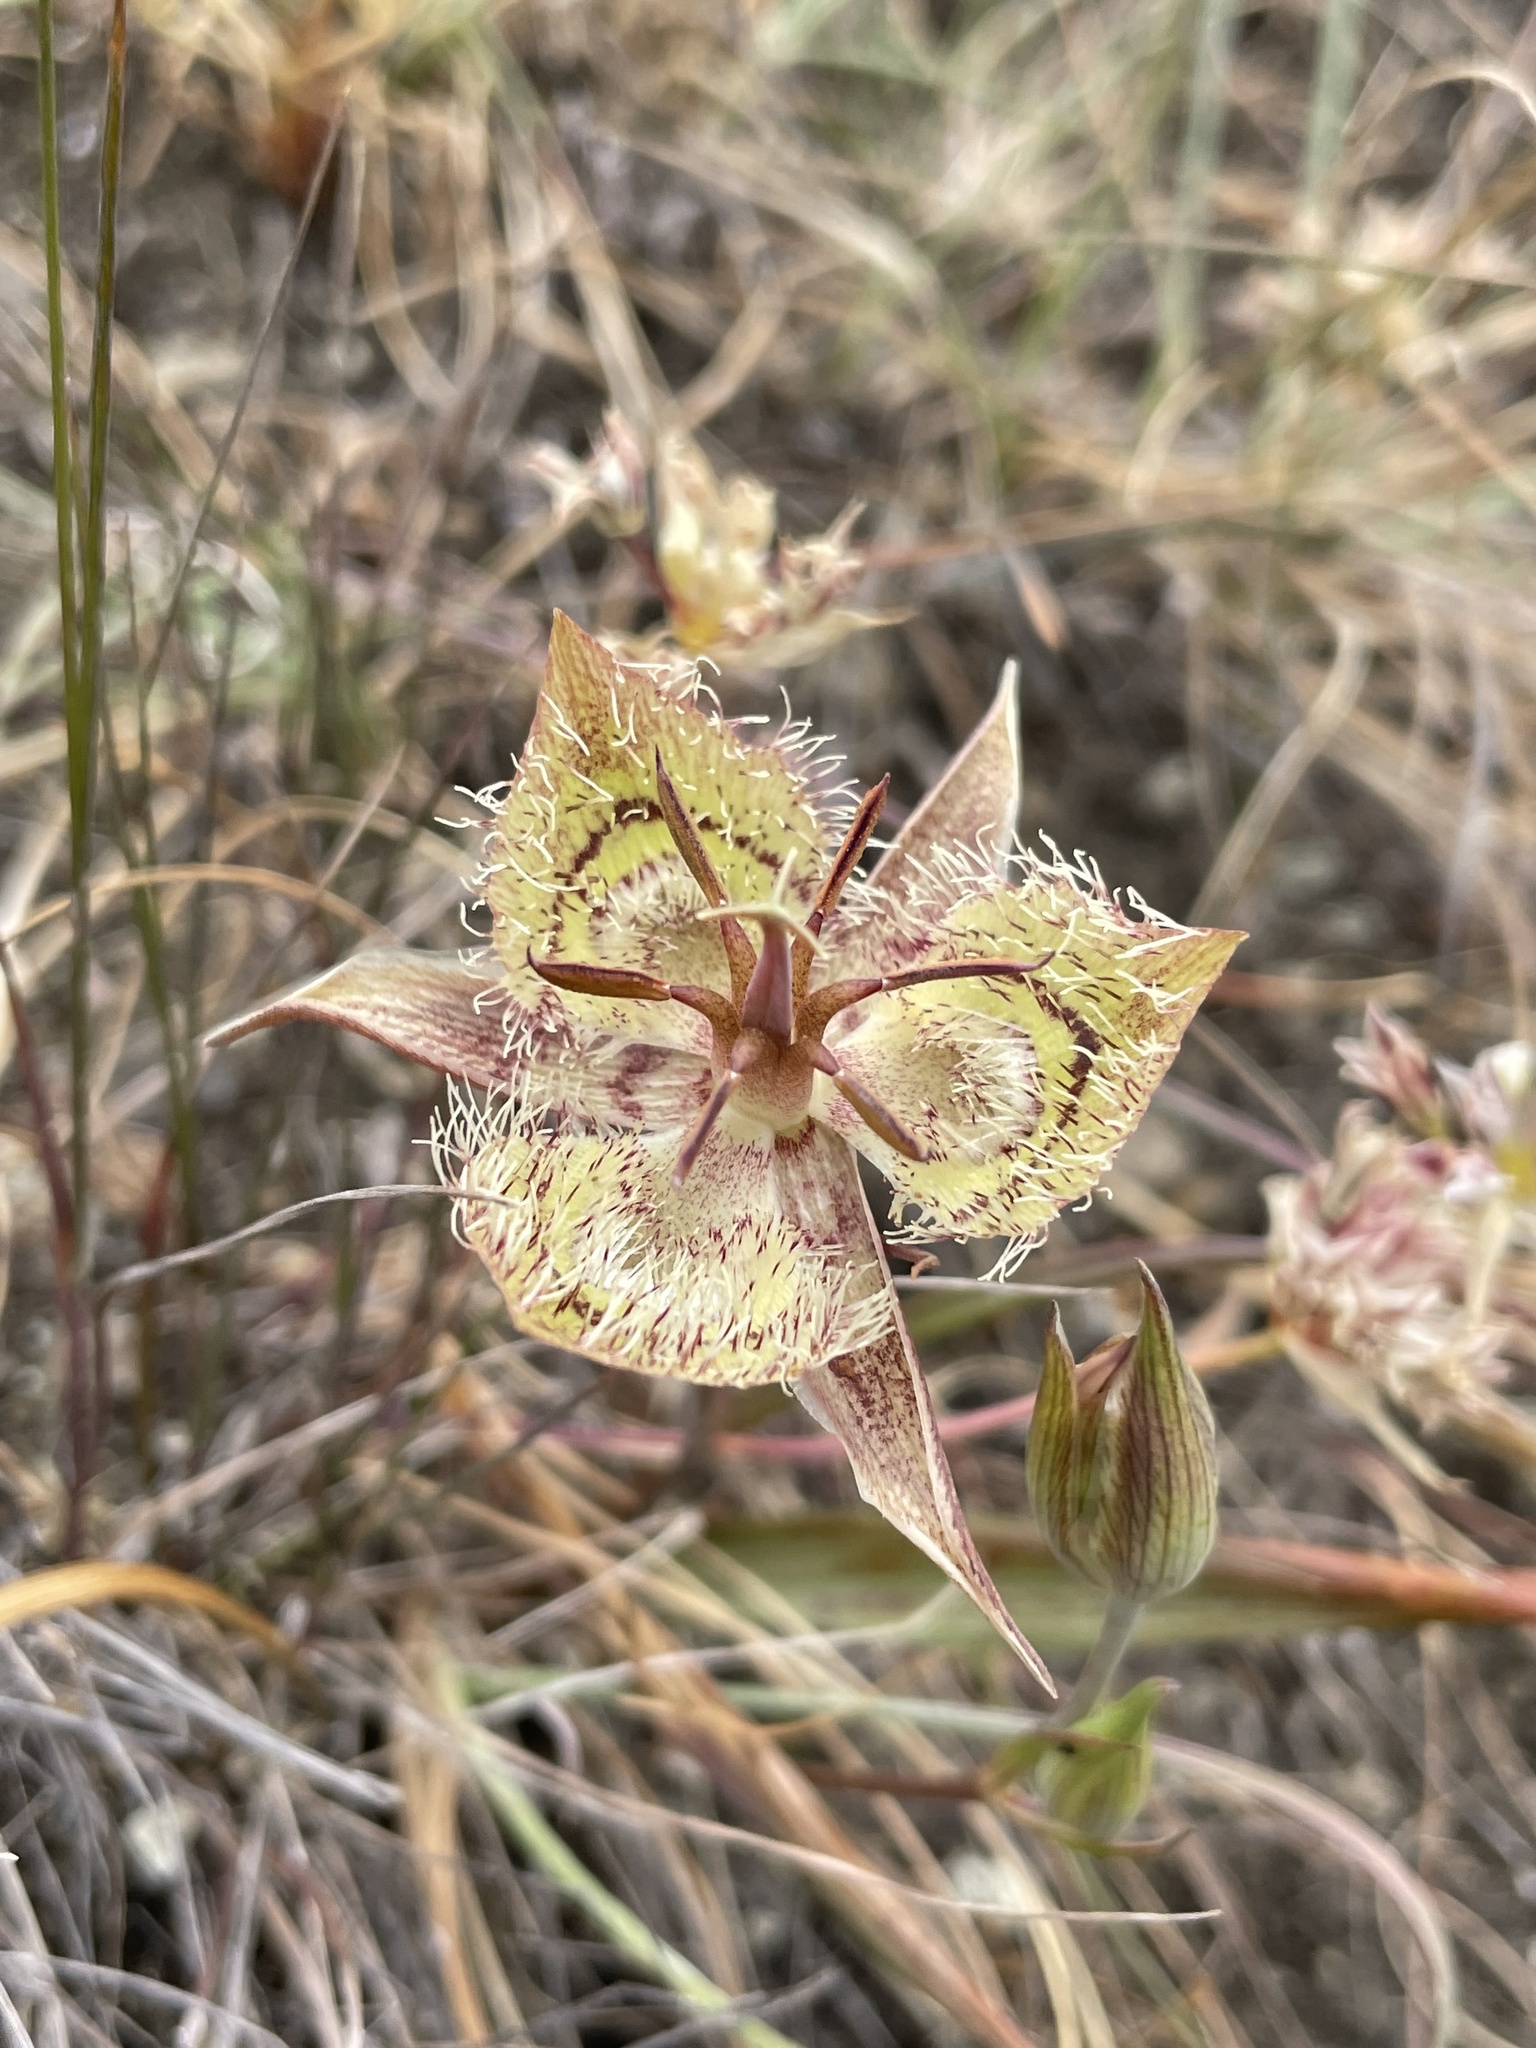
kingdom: Plantae
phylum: Tracheophyta
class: Liliopsida
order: Liliales
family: Liliaceae
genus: Calochortus
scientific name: Calochortus tiburonensis
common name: Tiburon mariposa-lily
